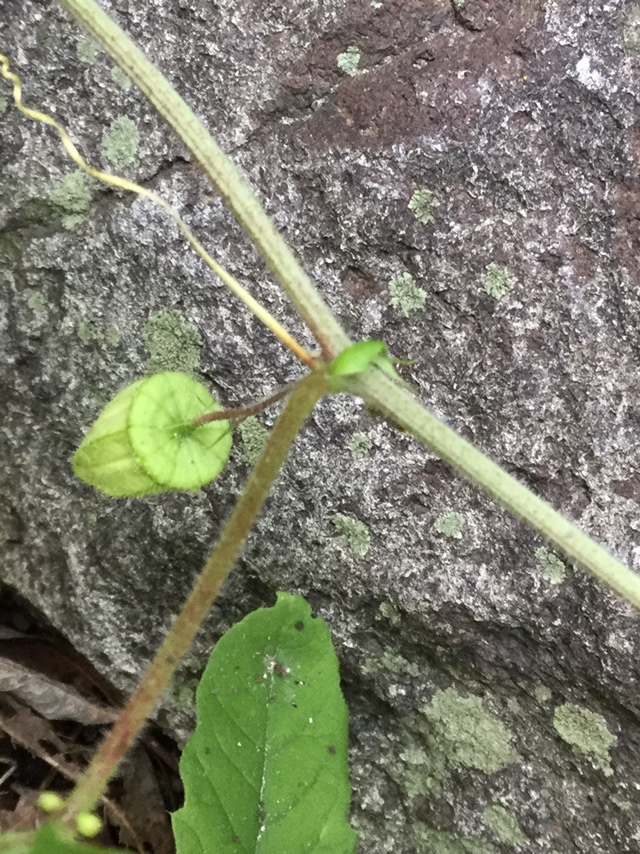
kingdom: Plantae
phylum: Tracheophyta
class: Magnoliopsida
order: Malpighiales
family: Passifloraceae
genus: Passiflora
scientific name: Passiflora bryonioides
